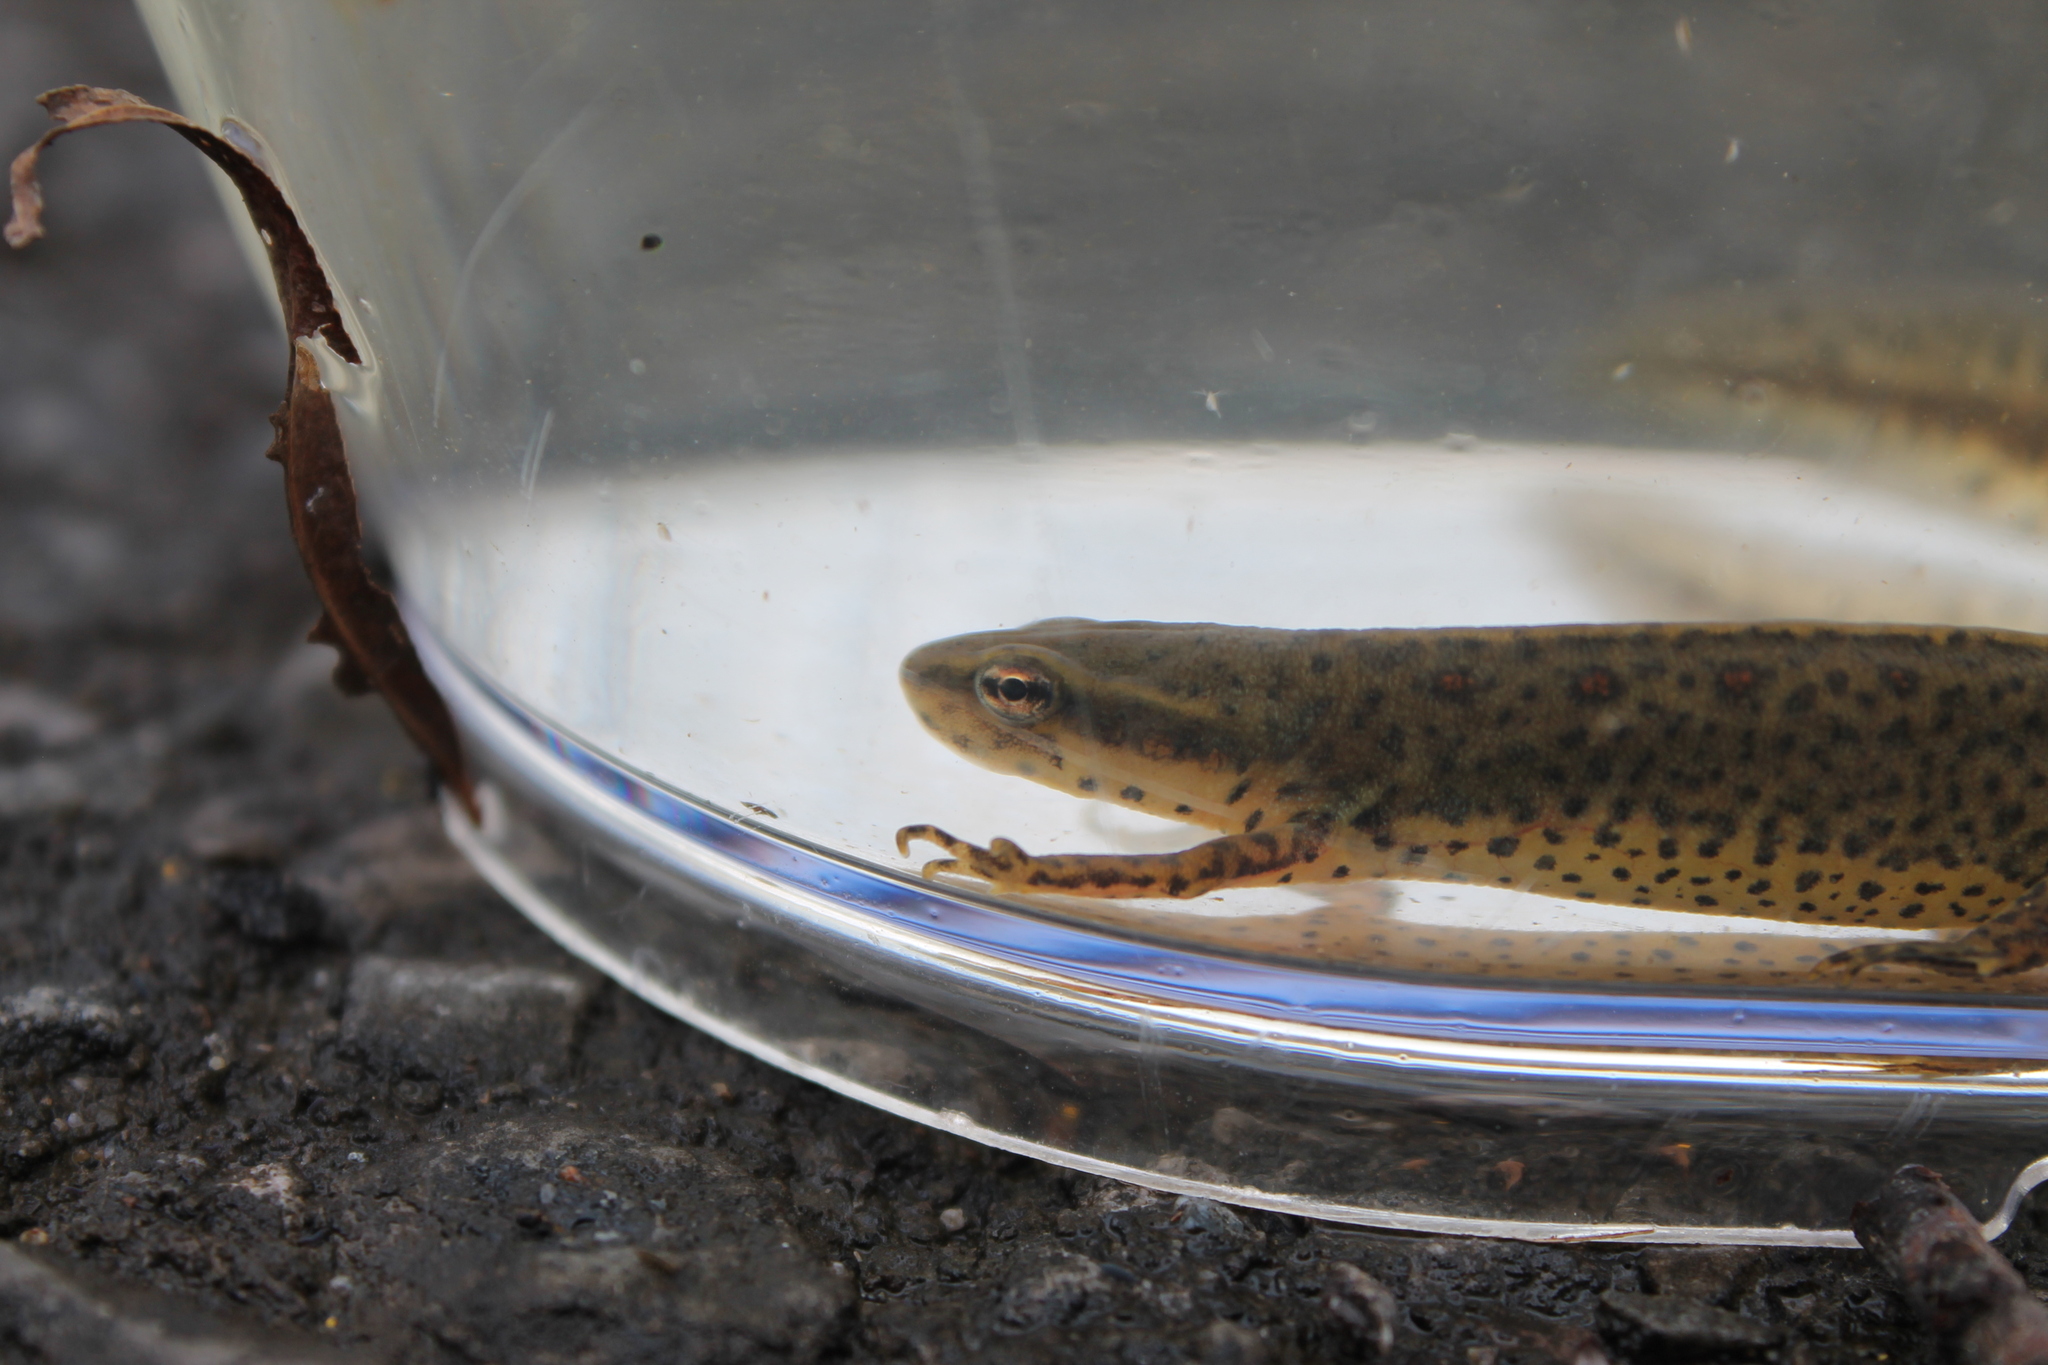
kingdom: Animalia
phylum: Chordata
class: Amphibia
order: Caudata
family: Salamandridae
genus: Notophthalmus
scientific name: Notophthalmus viridescens
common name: Eastern newt
